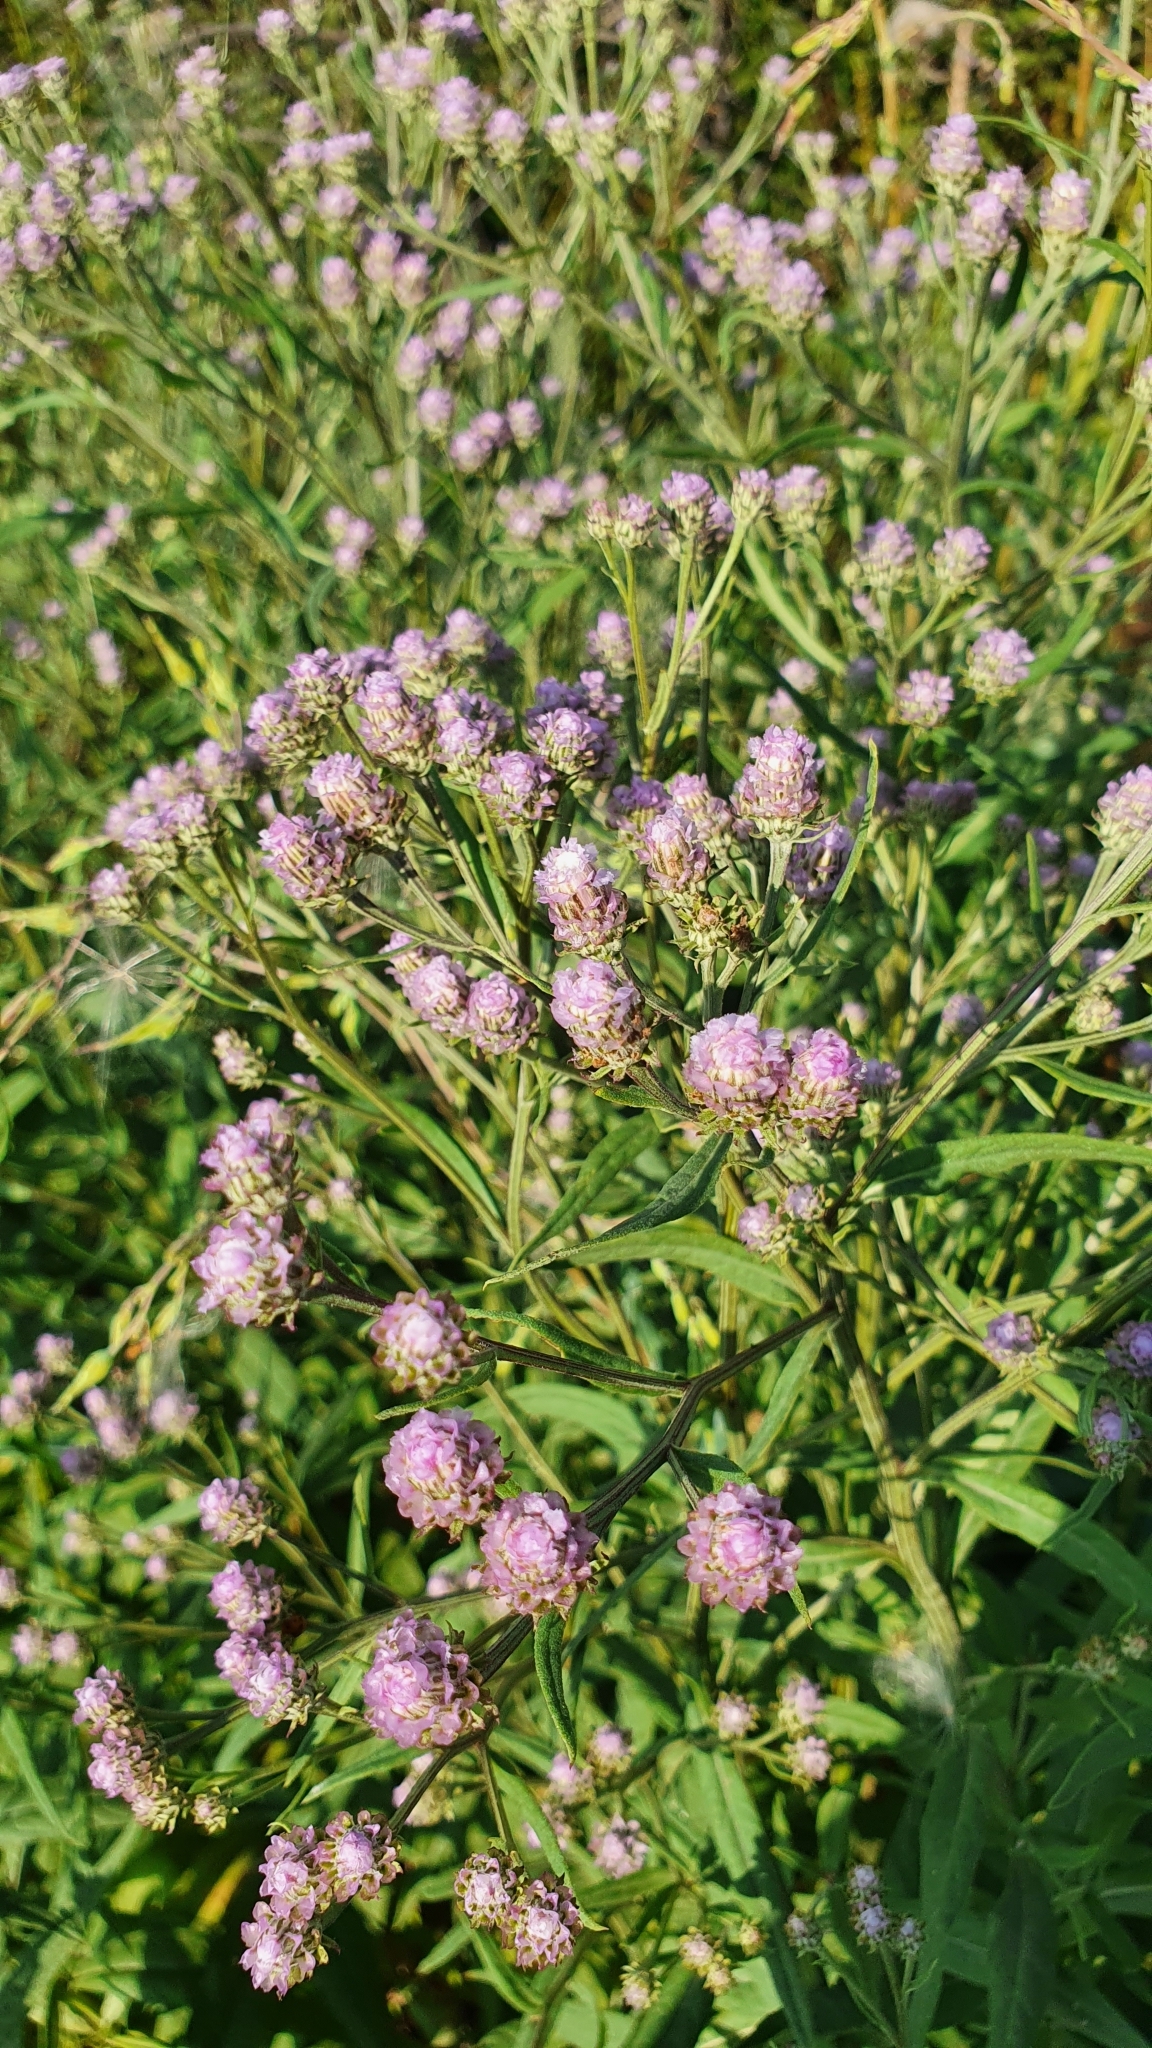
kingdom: Plantae
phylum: Tracheophyta
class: Magnoliopsida
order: Asterales
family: Asteraceae
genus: Saussurea
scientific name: Saussurea amara
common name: Alberta sawwort
